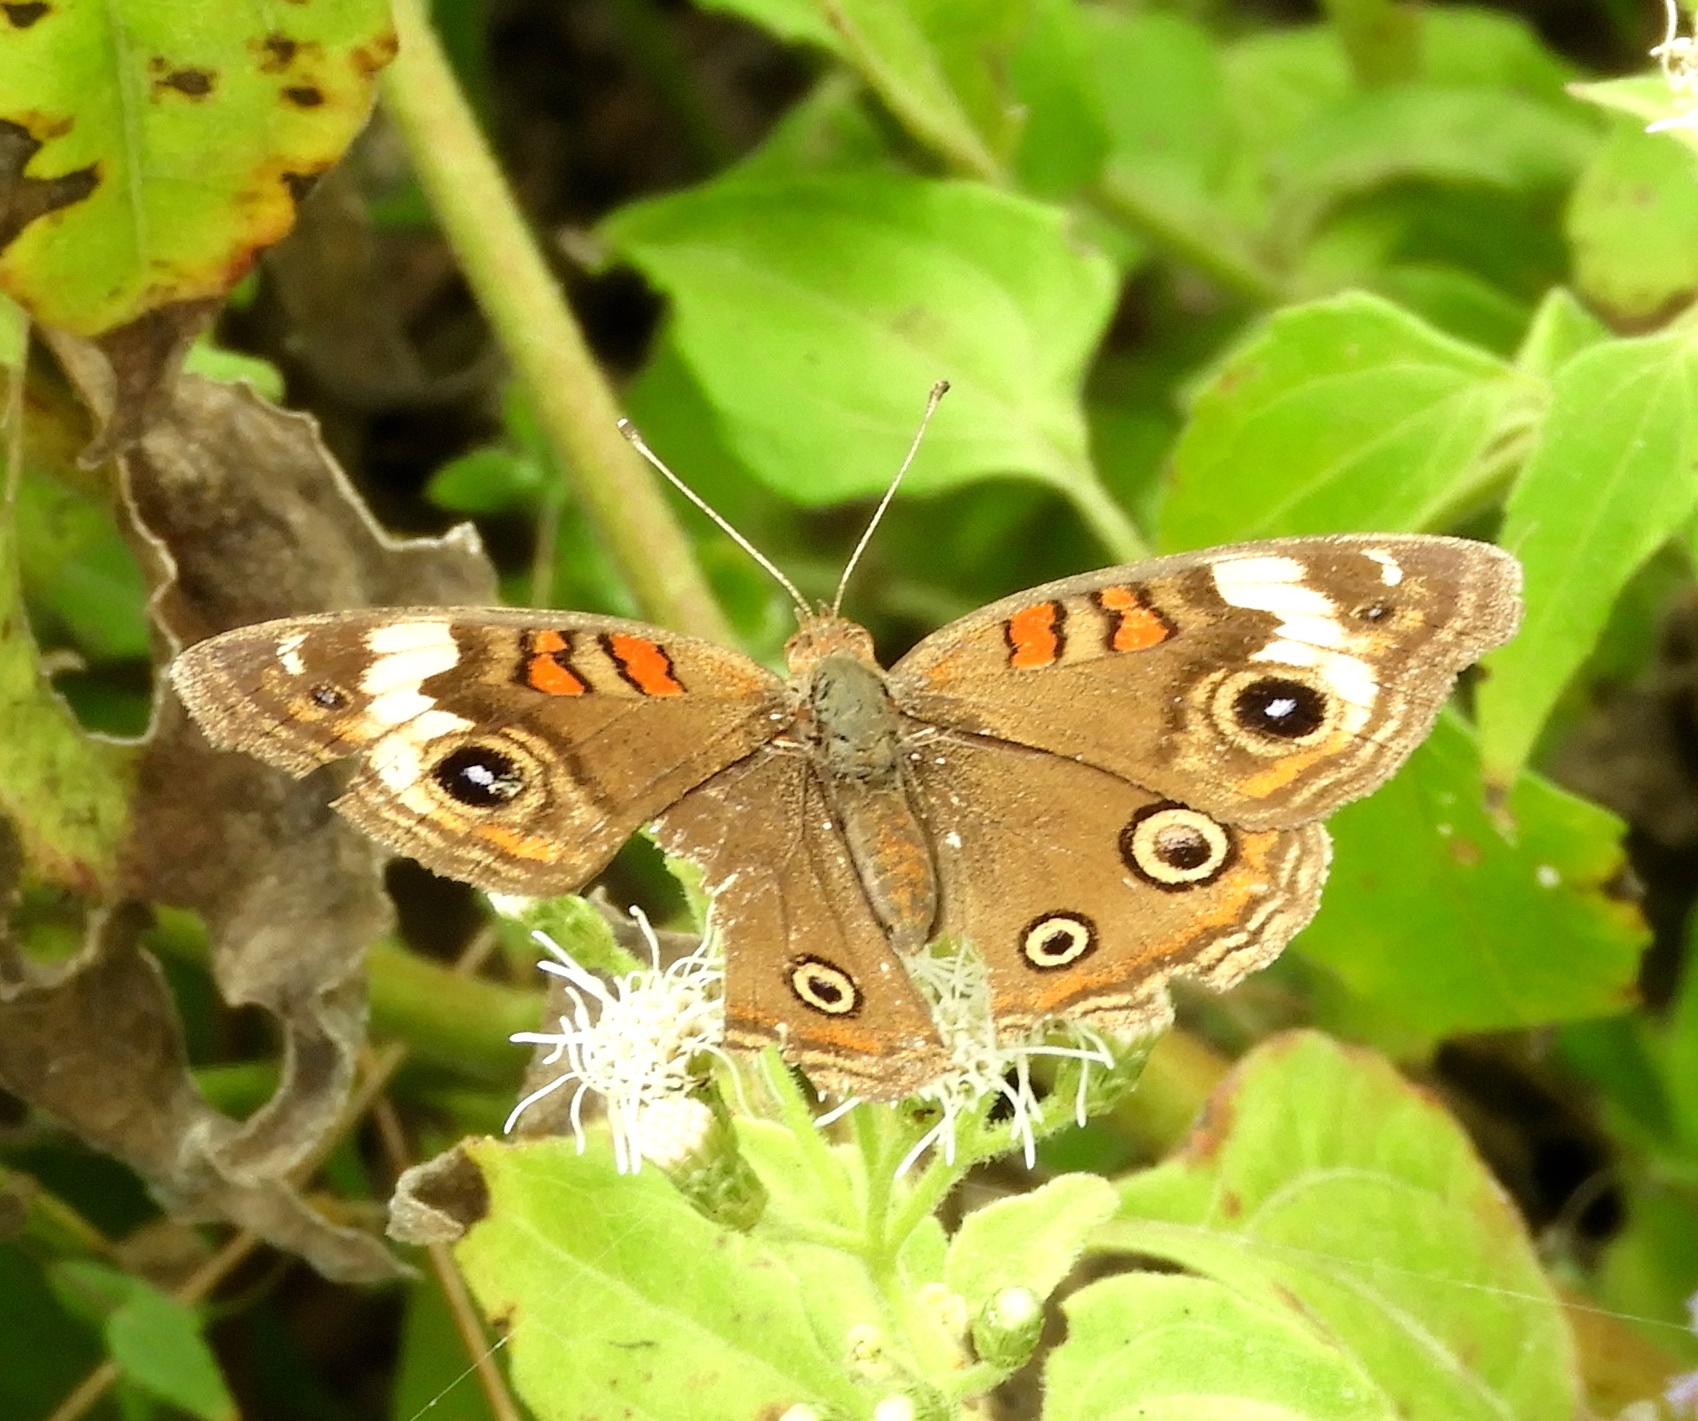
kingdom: Animalia
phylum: Arthropoda
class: Insecta
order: Lepidoptera
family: Nymphalidae
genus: Junonia
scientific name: Junonia
